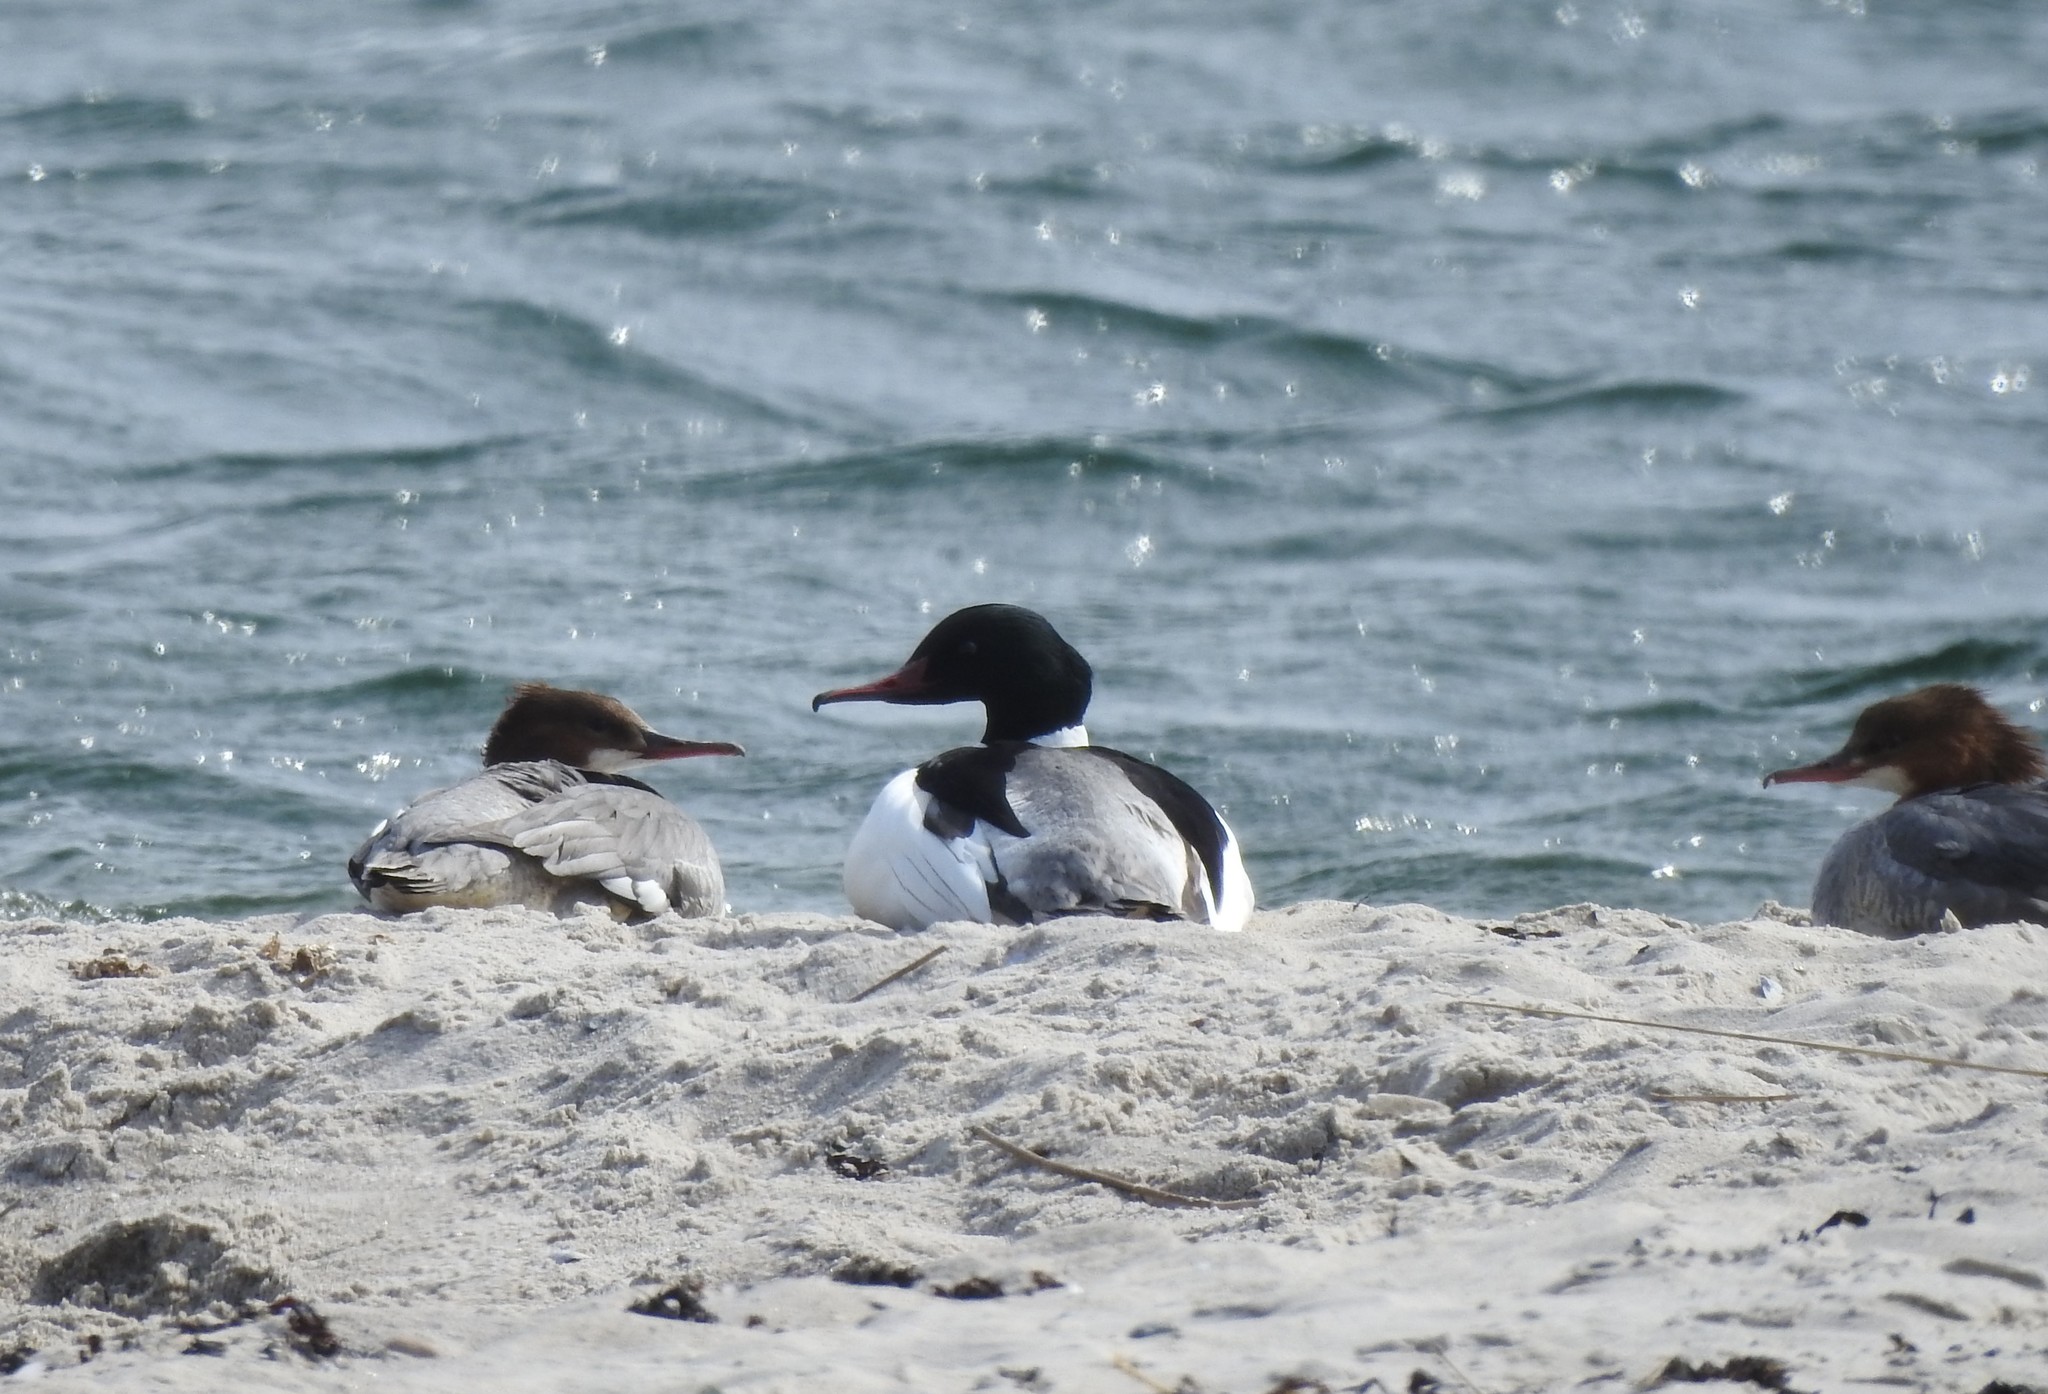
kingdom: Animalia
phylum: Chordata
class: Aves
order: Anseriformes
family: Anatidae
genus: Mergus
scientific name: Mergus merganser
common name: Common merganser
